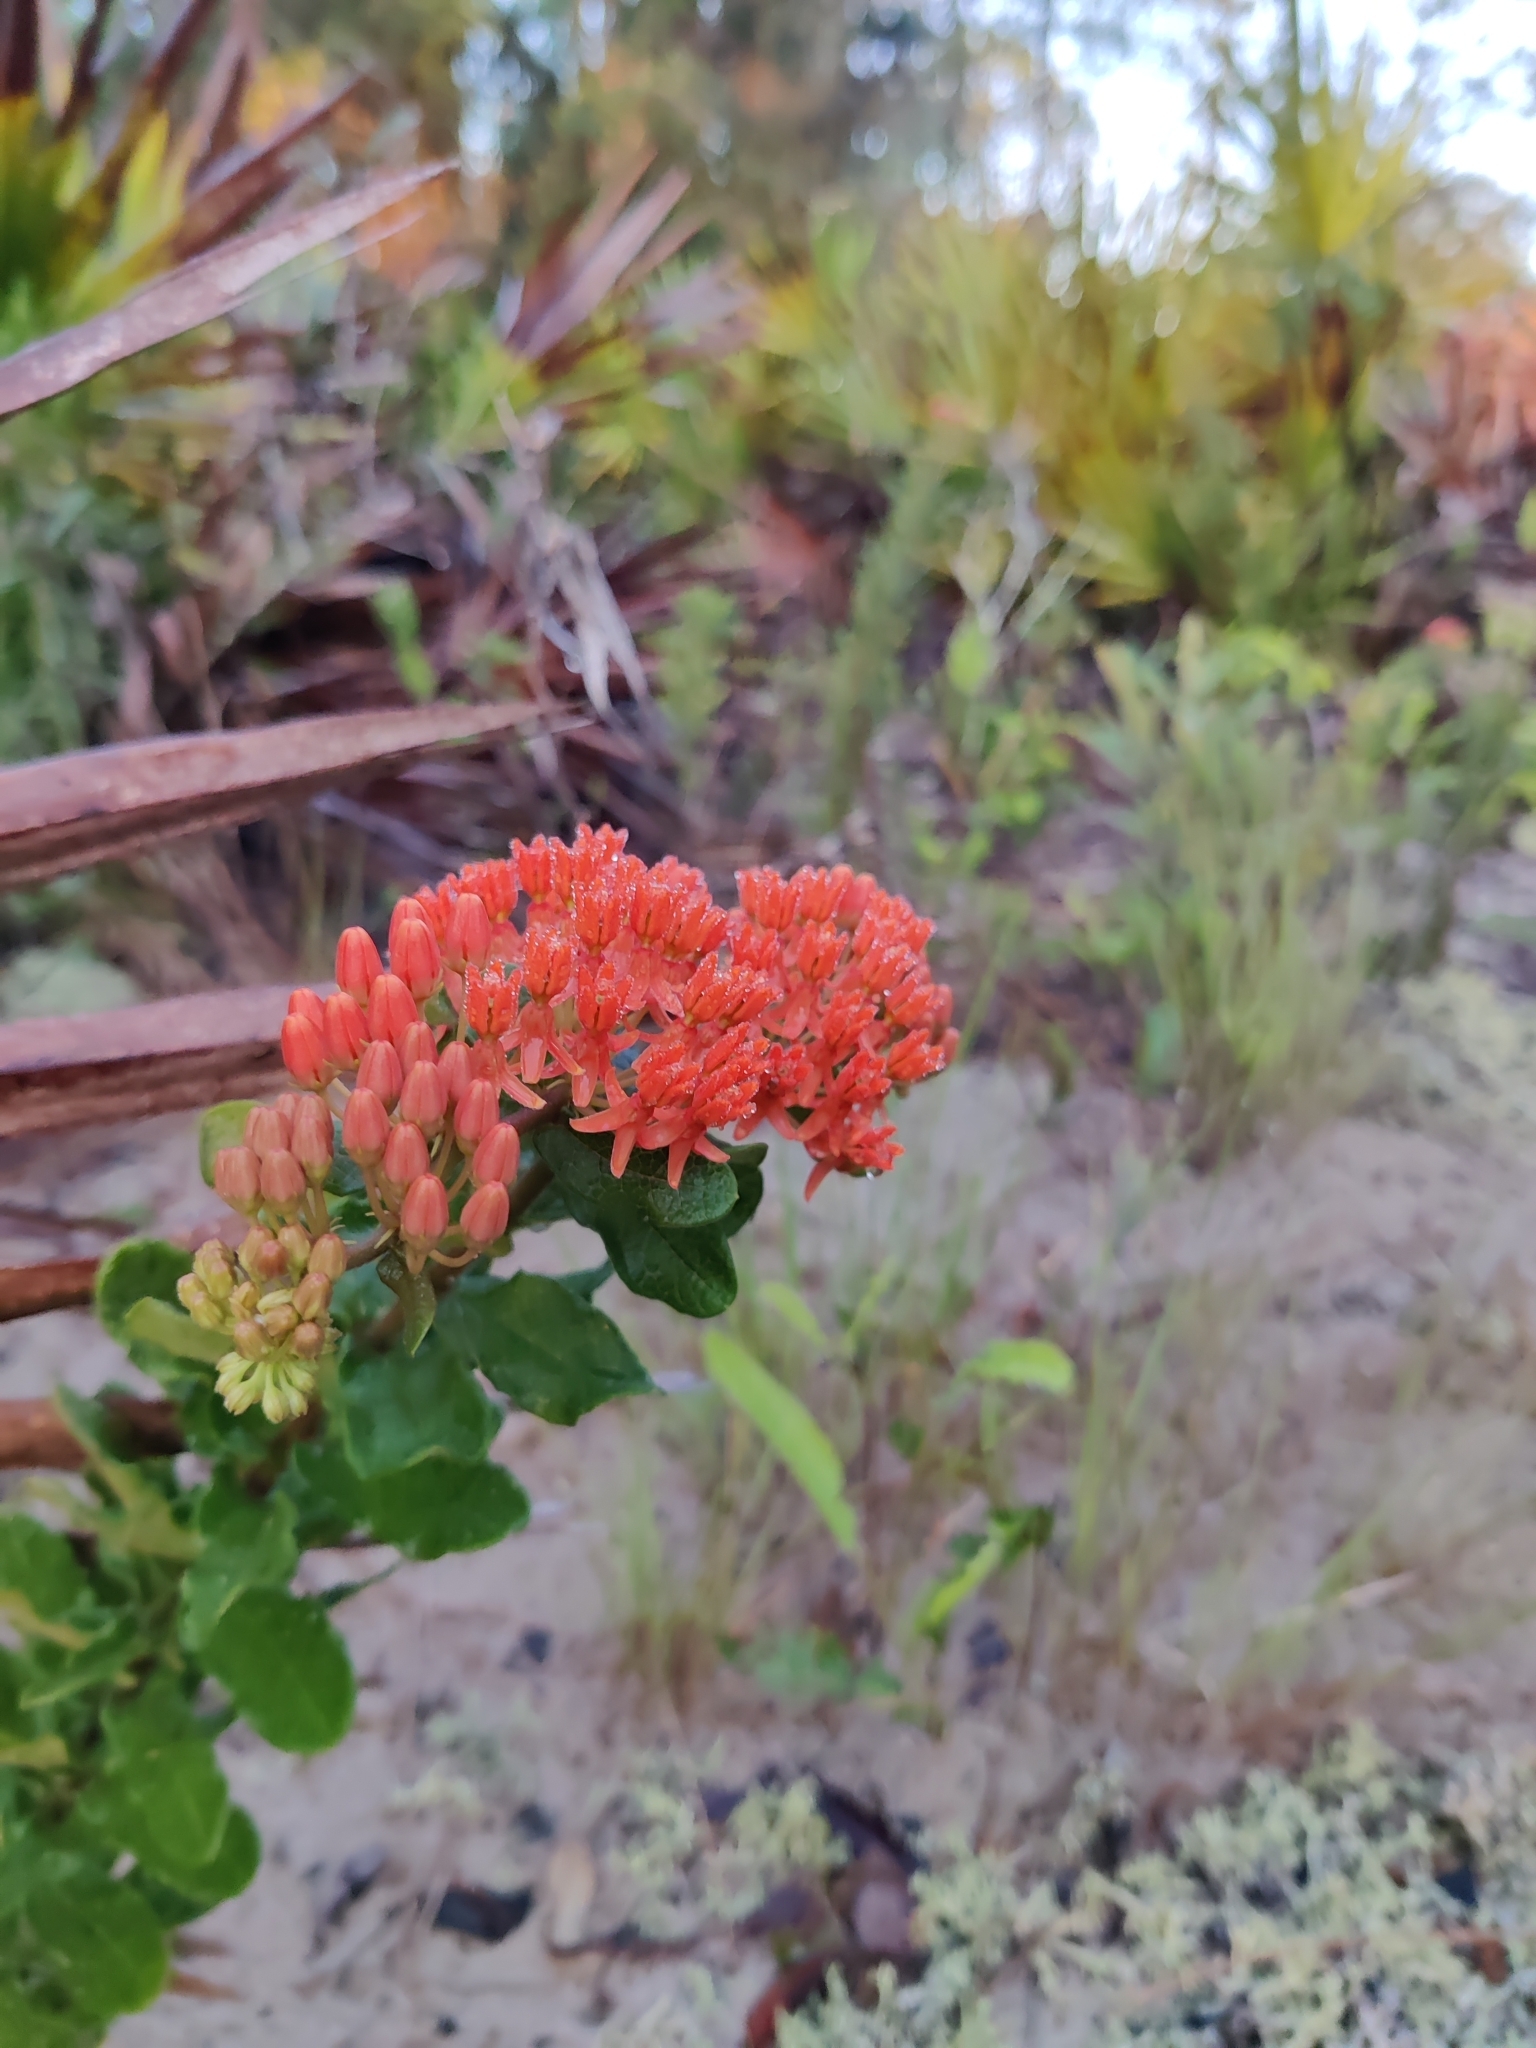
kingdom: Plantae
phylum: Tracheophyta
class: Magnoliopsida
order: Gentianales
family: Apocynaceae
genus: Asclepias
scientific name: Asclepias tuberosa
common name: Butterfly milkweed
